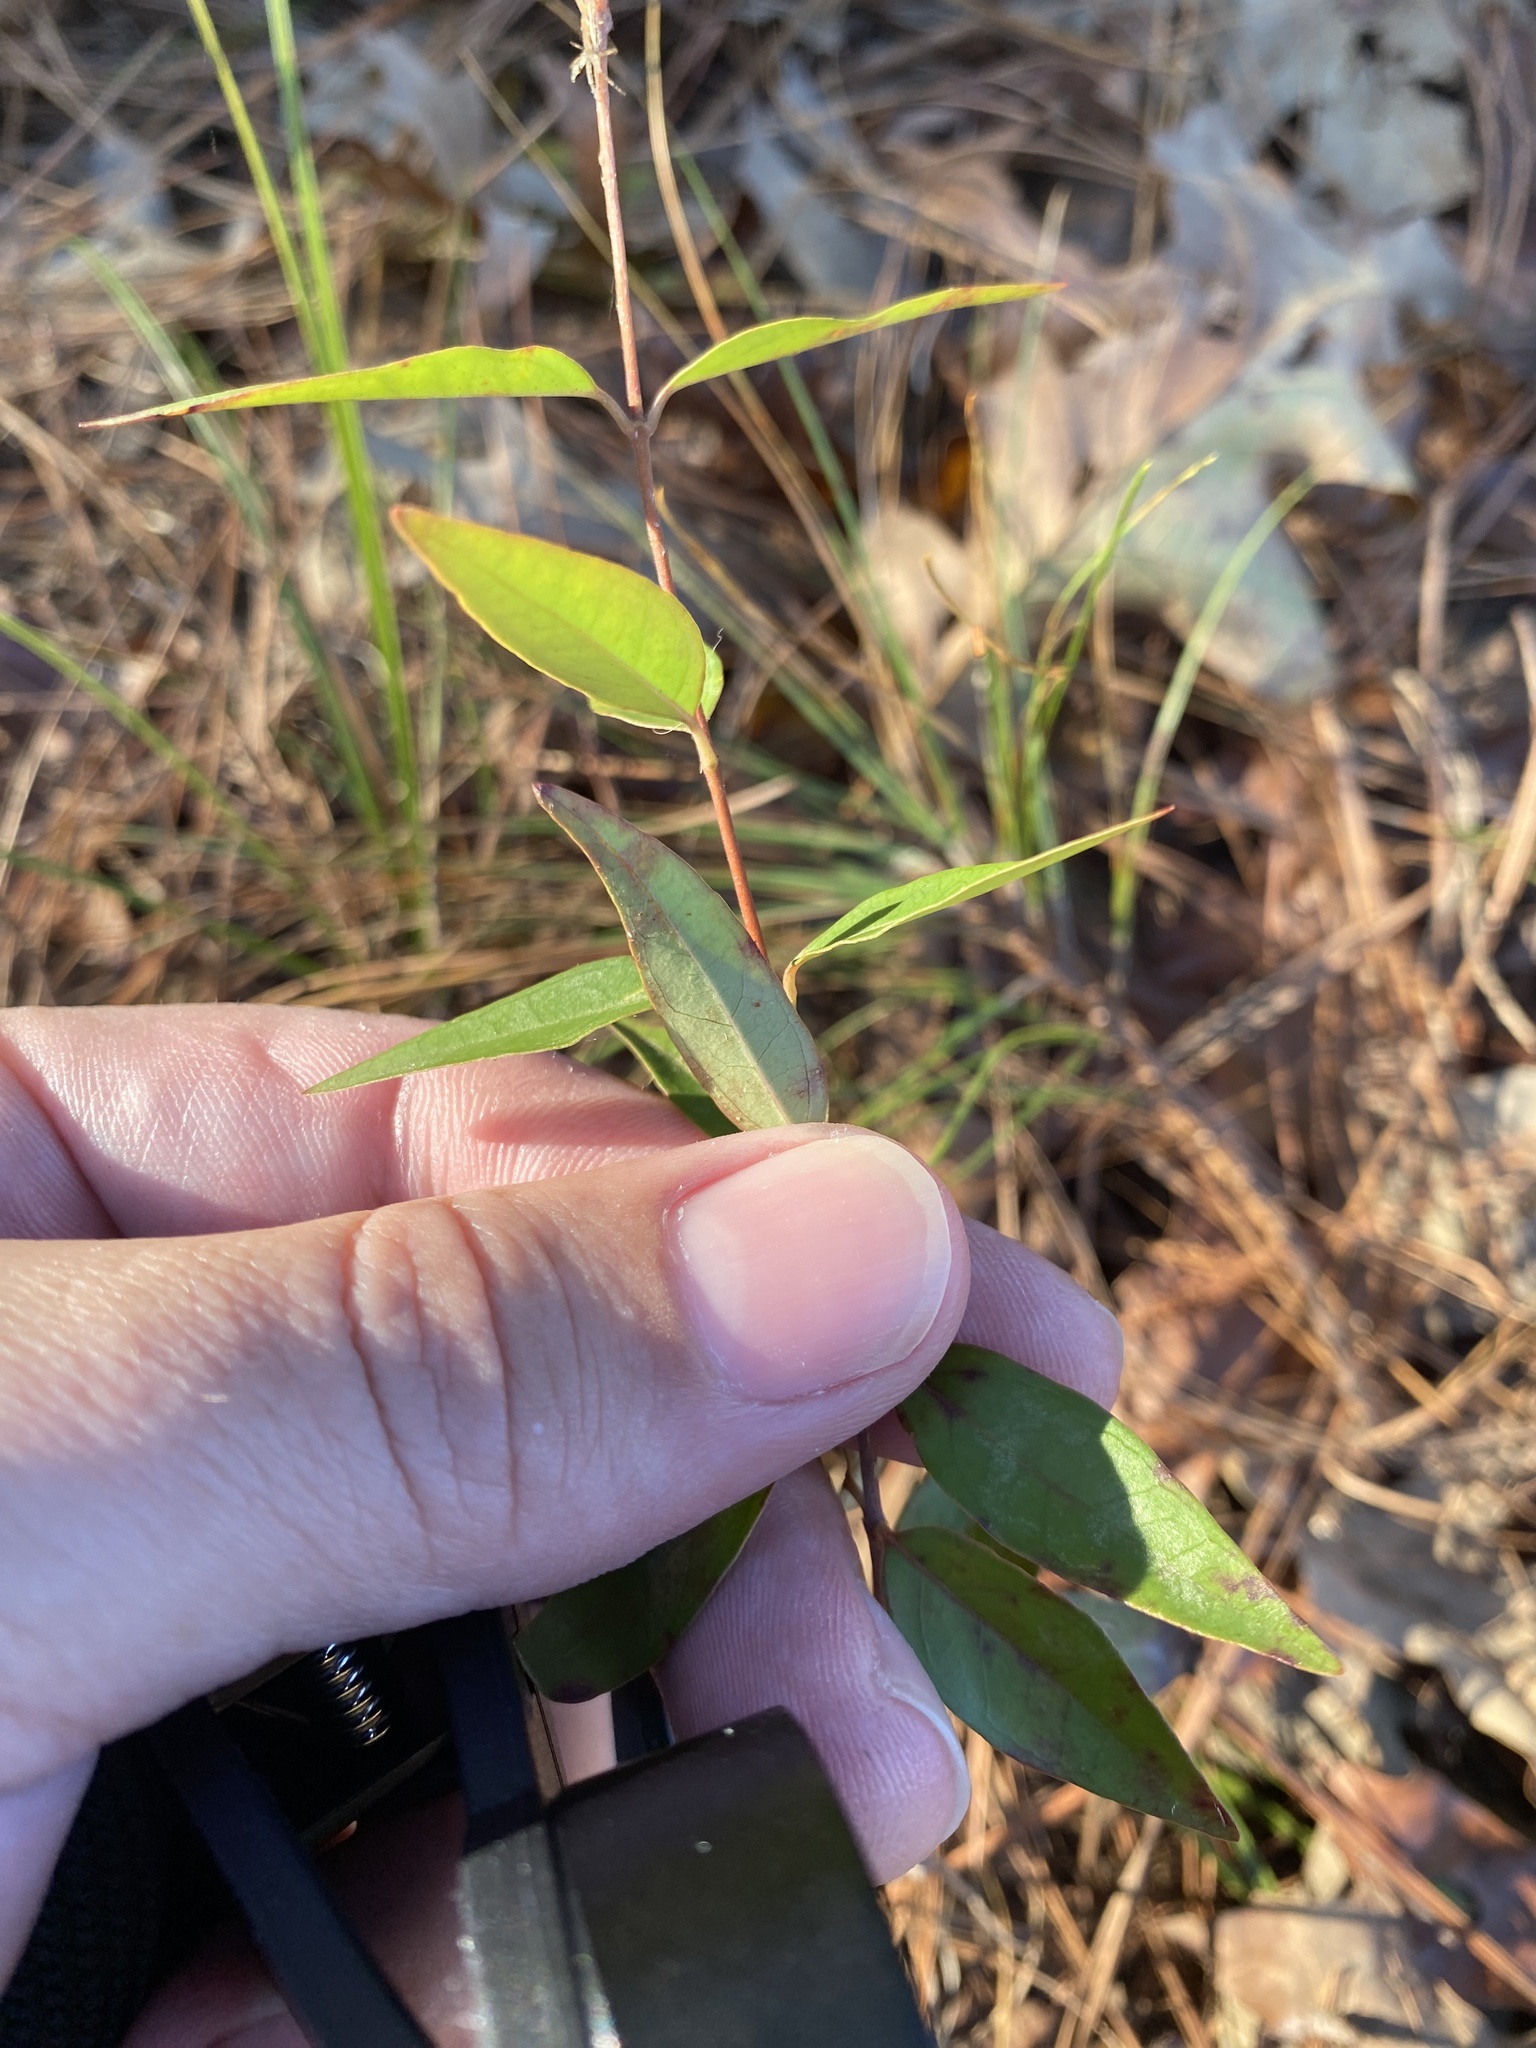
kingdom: Plantae
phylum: Tracheophyta
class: Magnoliopsida
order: Gentianales
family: Gelsemiaceae
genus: Gelsemium
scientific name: Gelsemium sempervirens
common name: Carolina-jasmine
